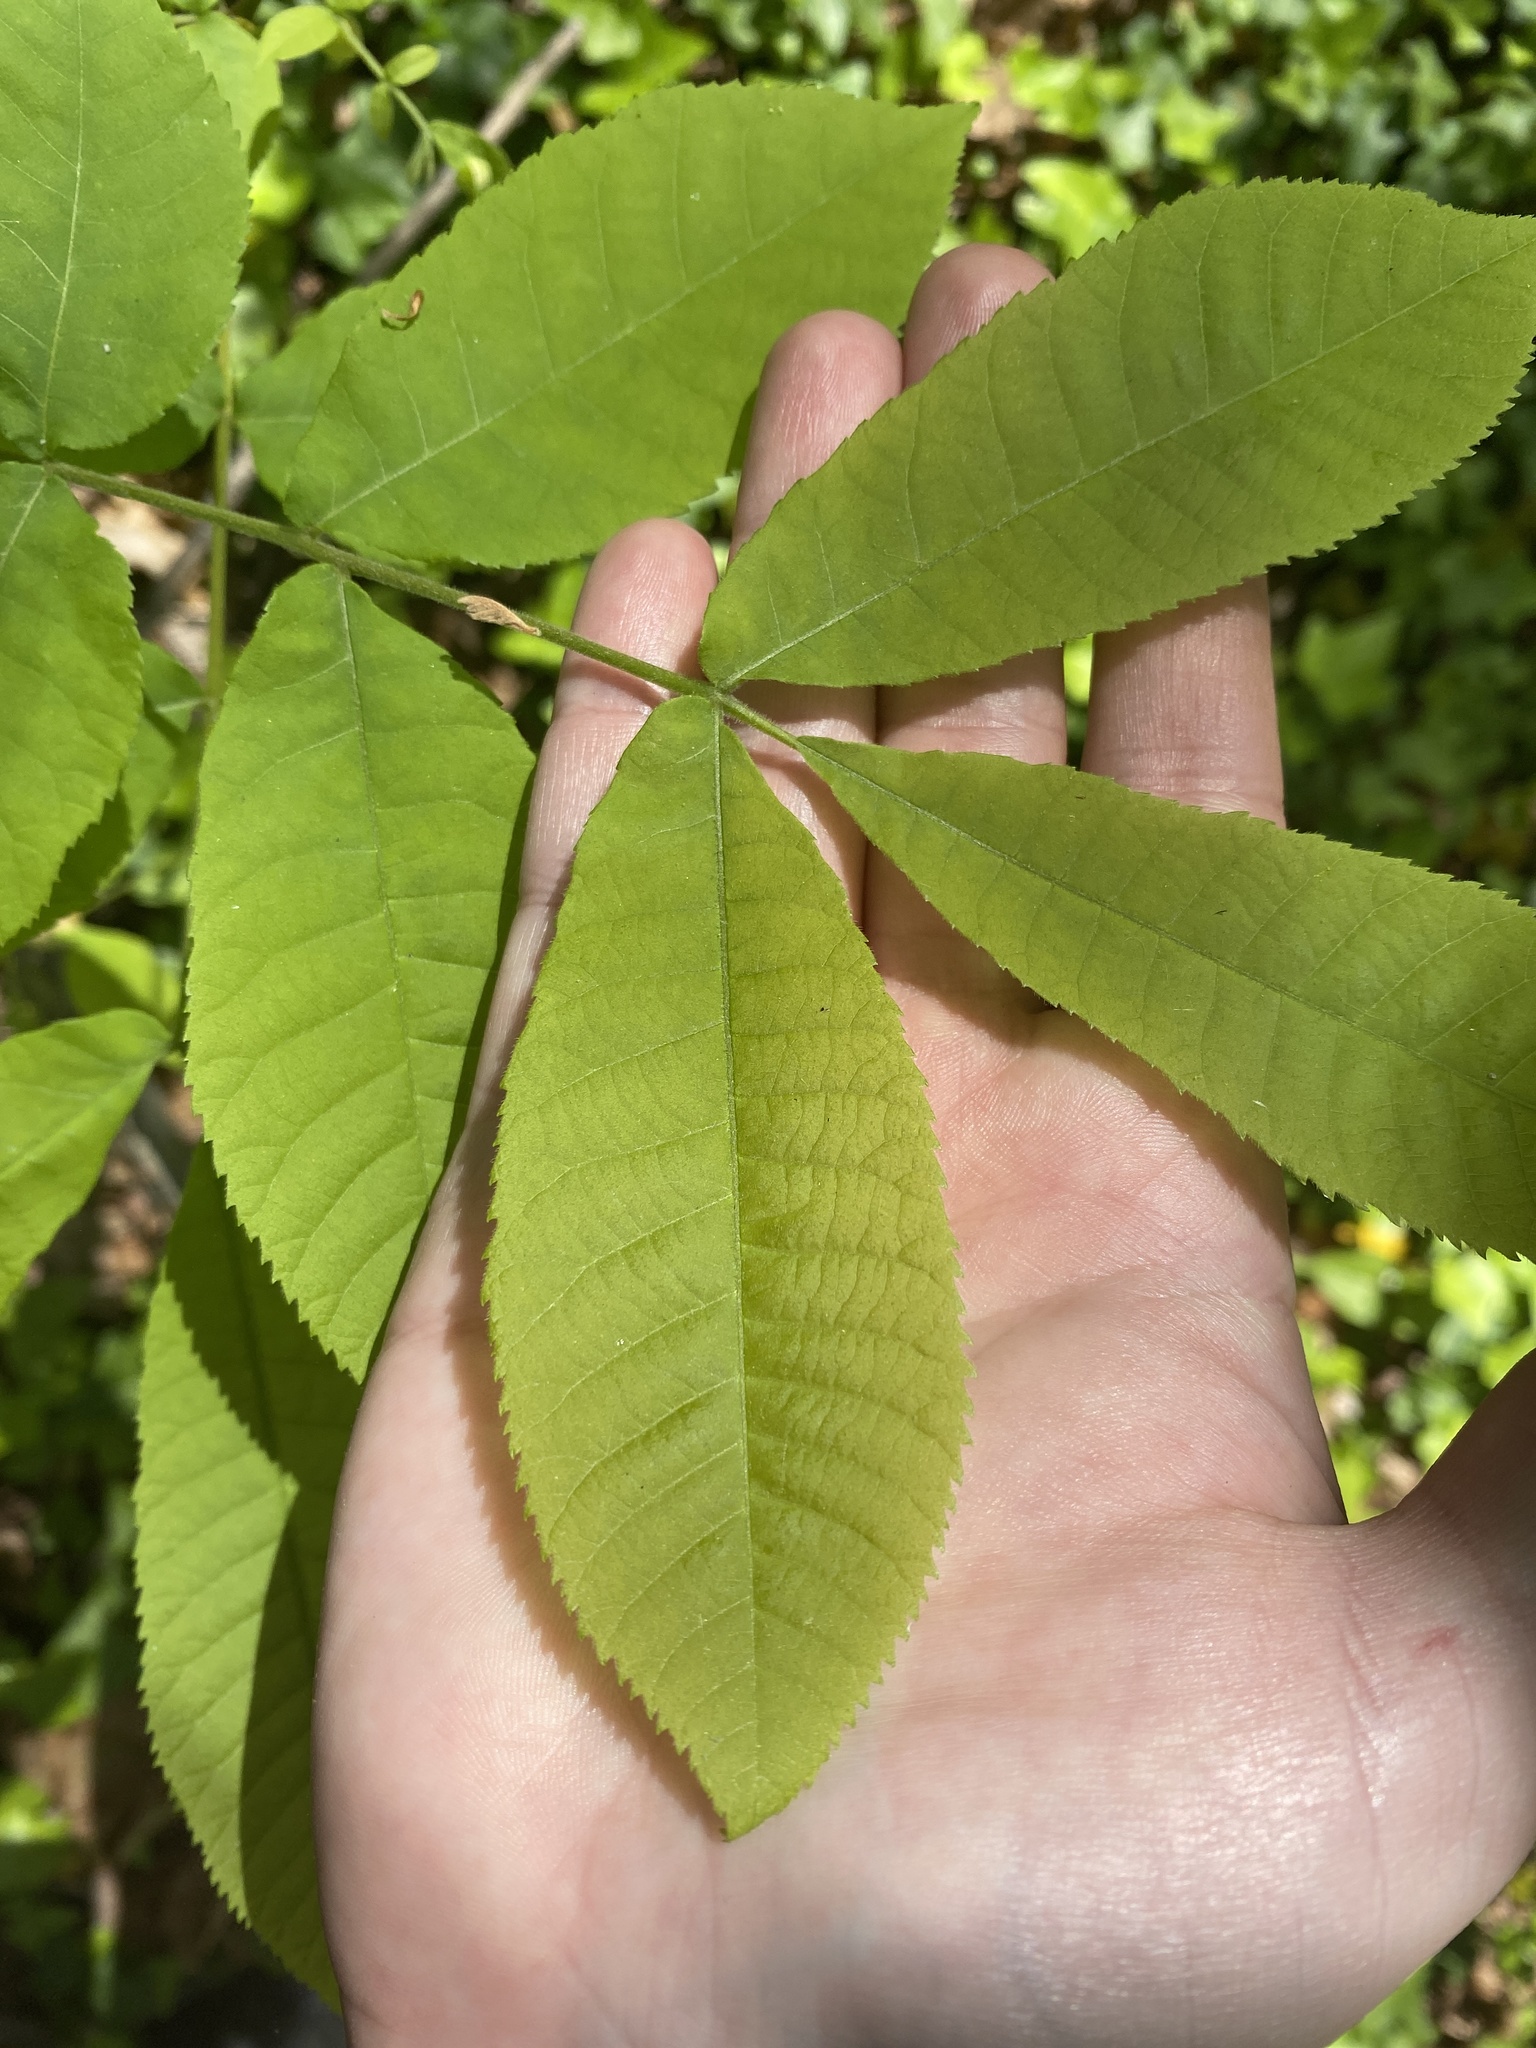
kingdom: Plantae
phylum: Tracheophyta
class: Magnoliopsida
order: Fagales
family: Juglandaceae
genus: Carya
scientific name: Carya alba
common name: Mockernut hickory
